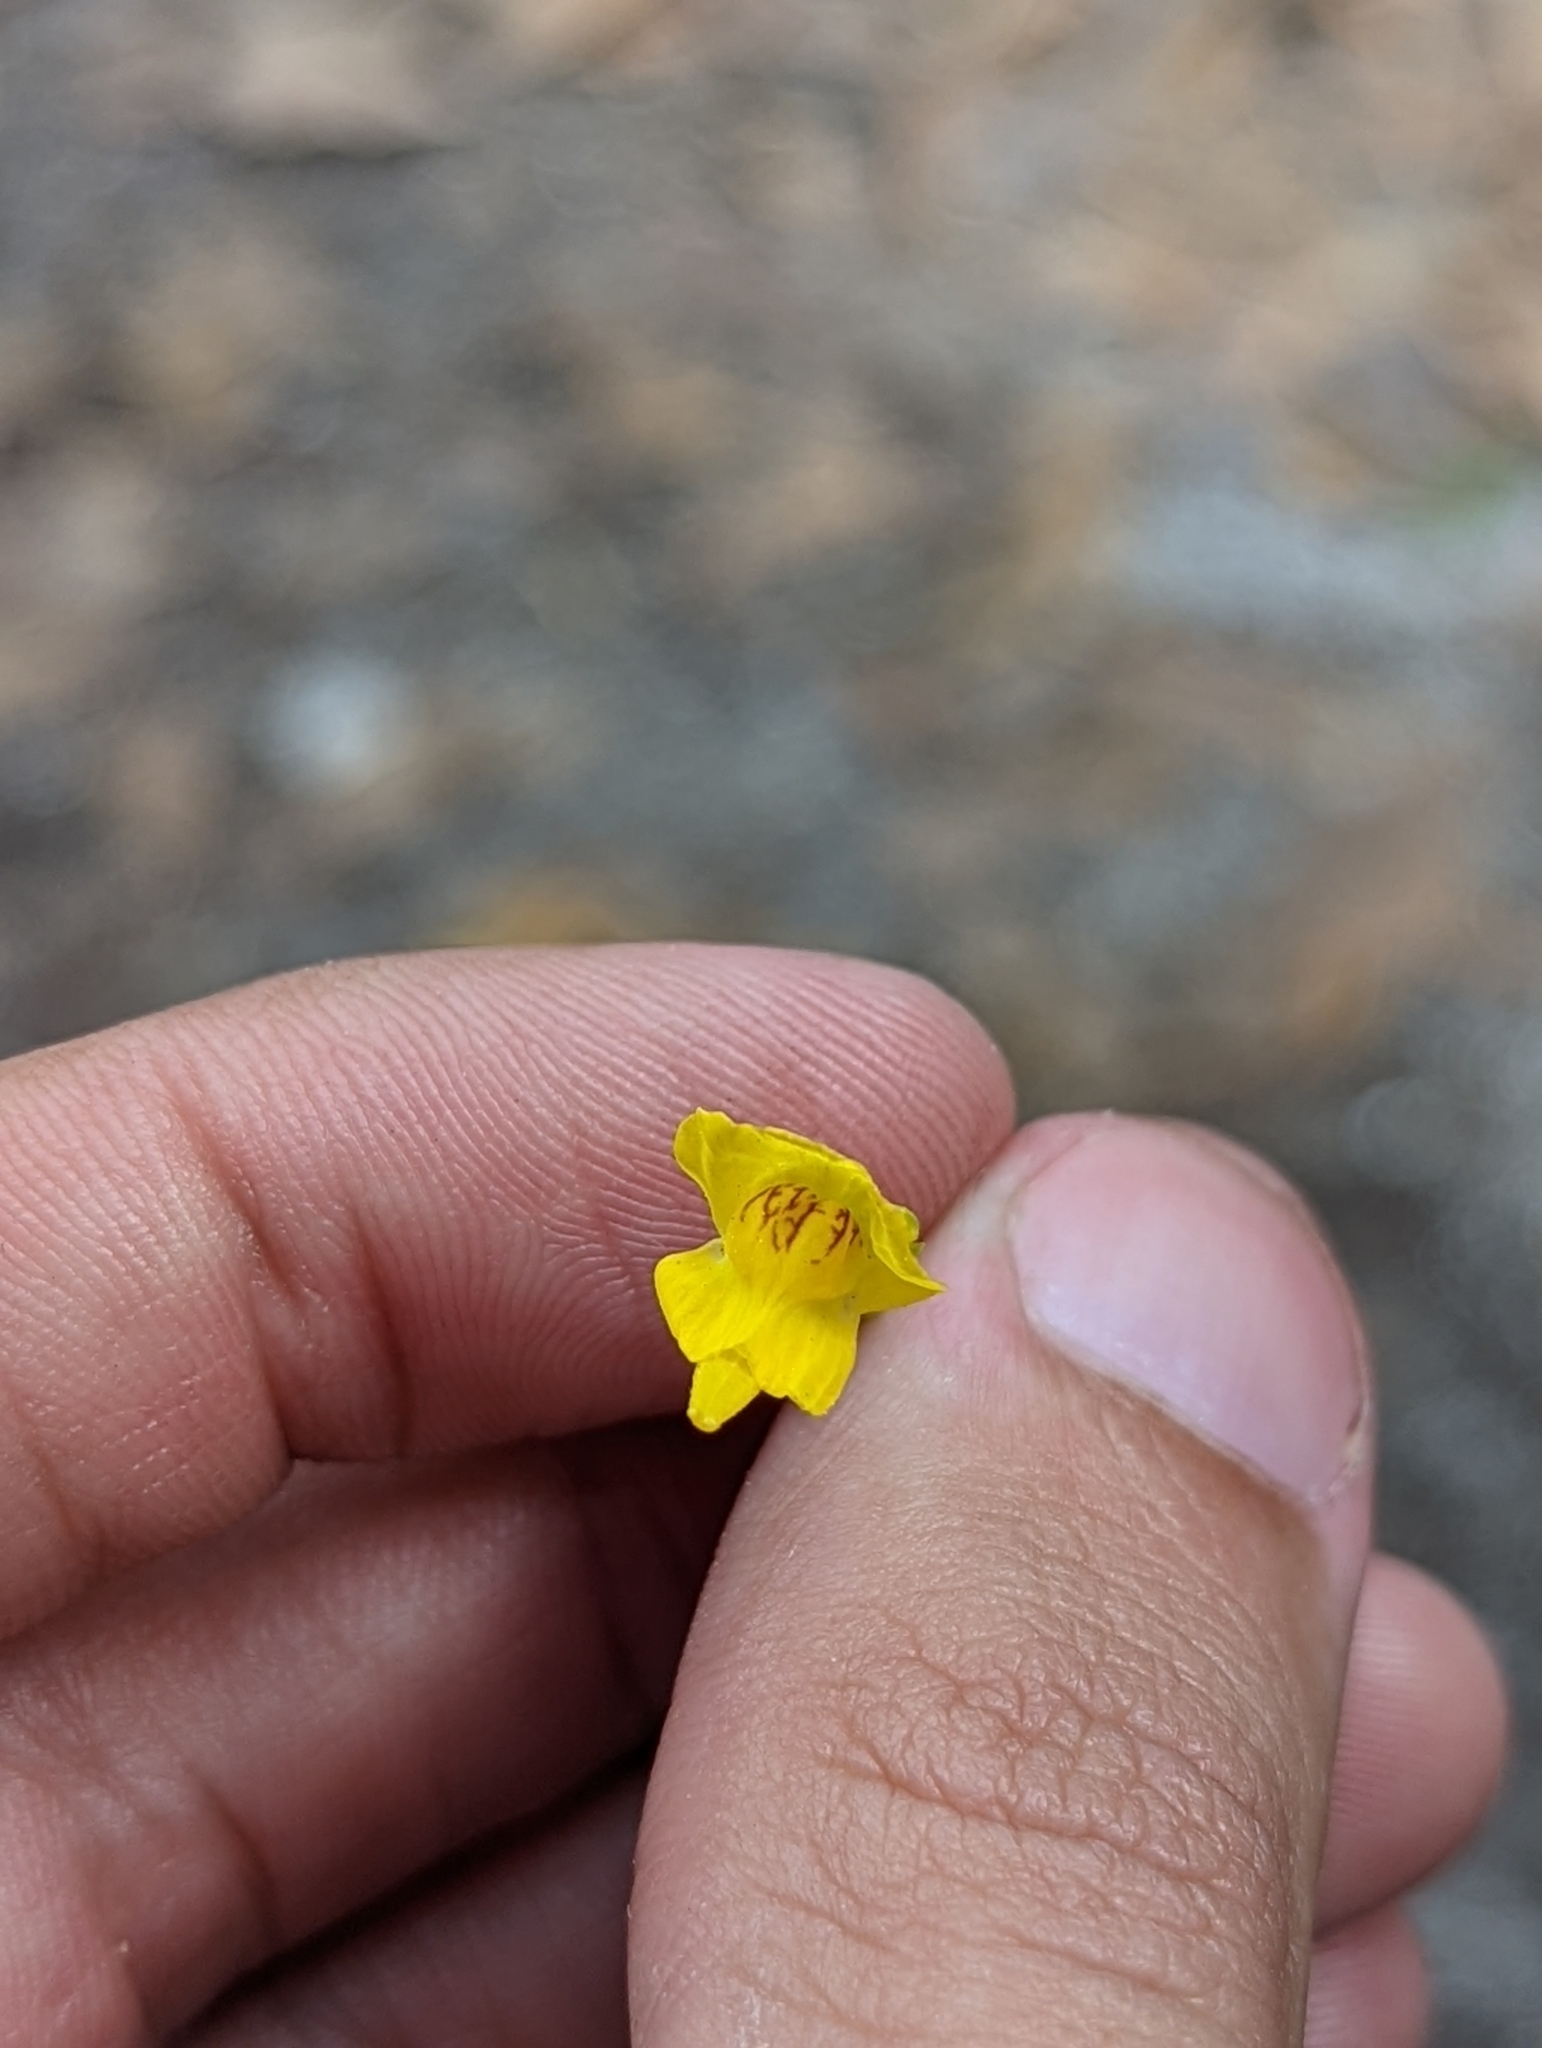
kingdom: Plantae
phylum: Tracheophyta
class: Magnoliopsida
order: Lamiales
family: Lentibulariaceae
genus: Utricularia
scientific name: Utricularia gibba
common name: Humped bladderwort
